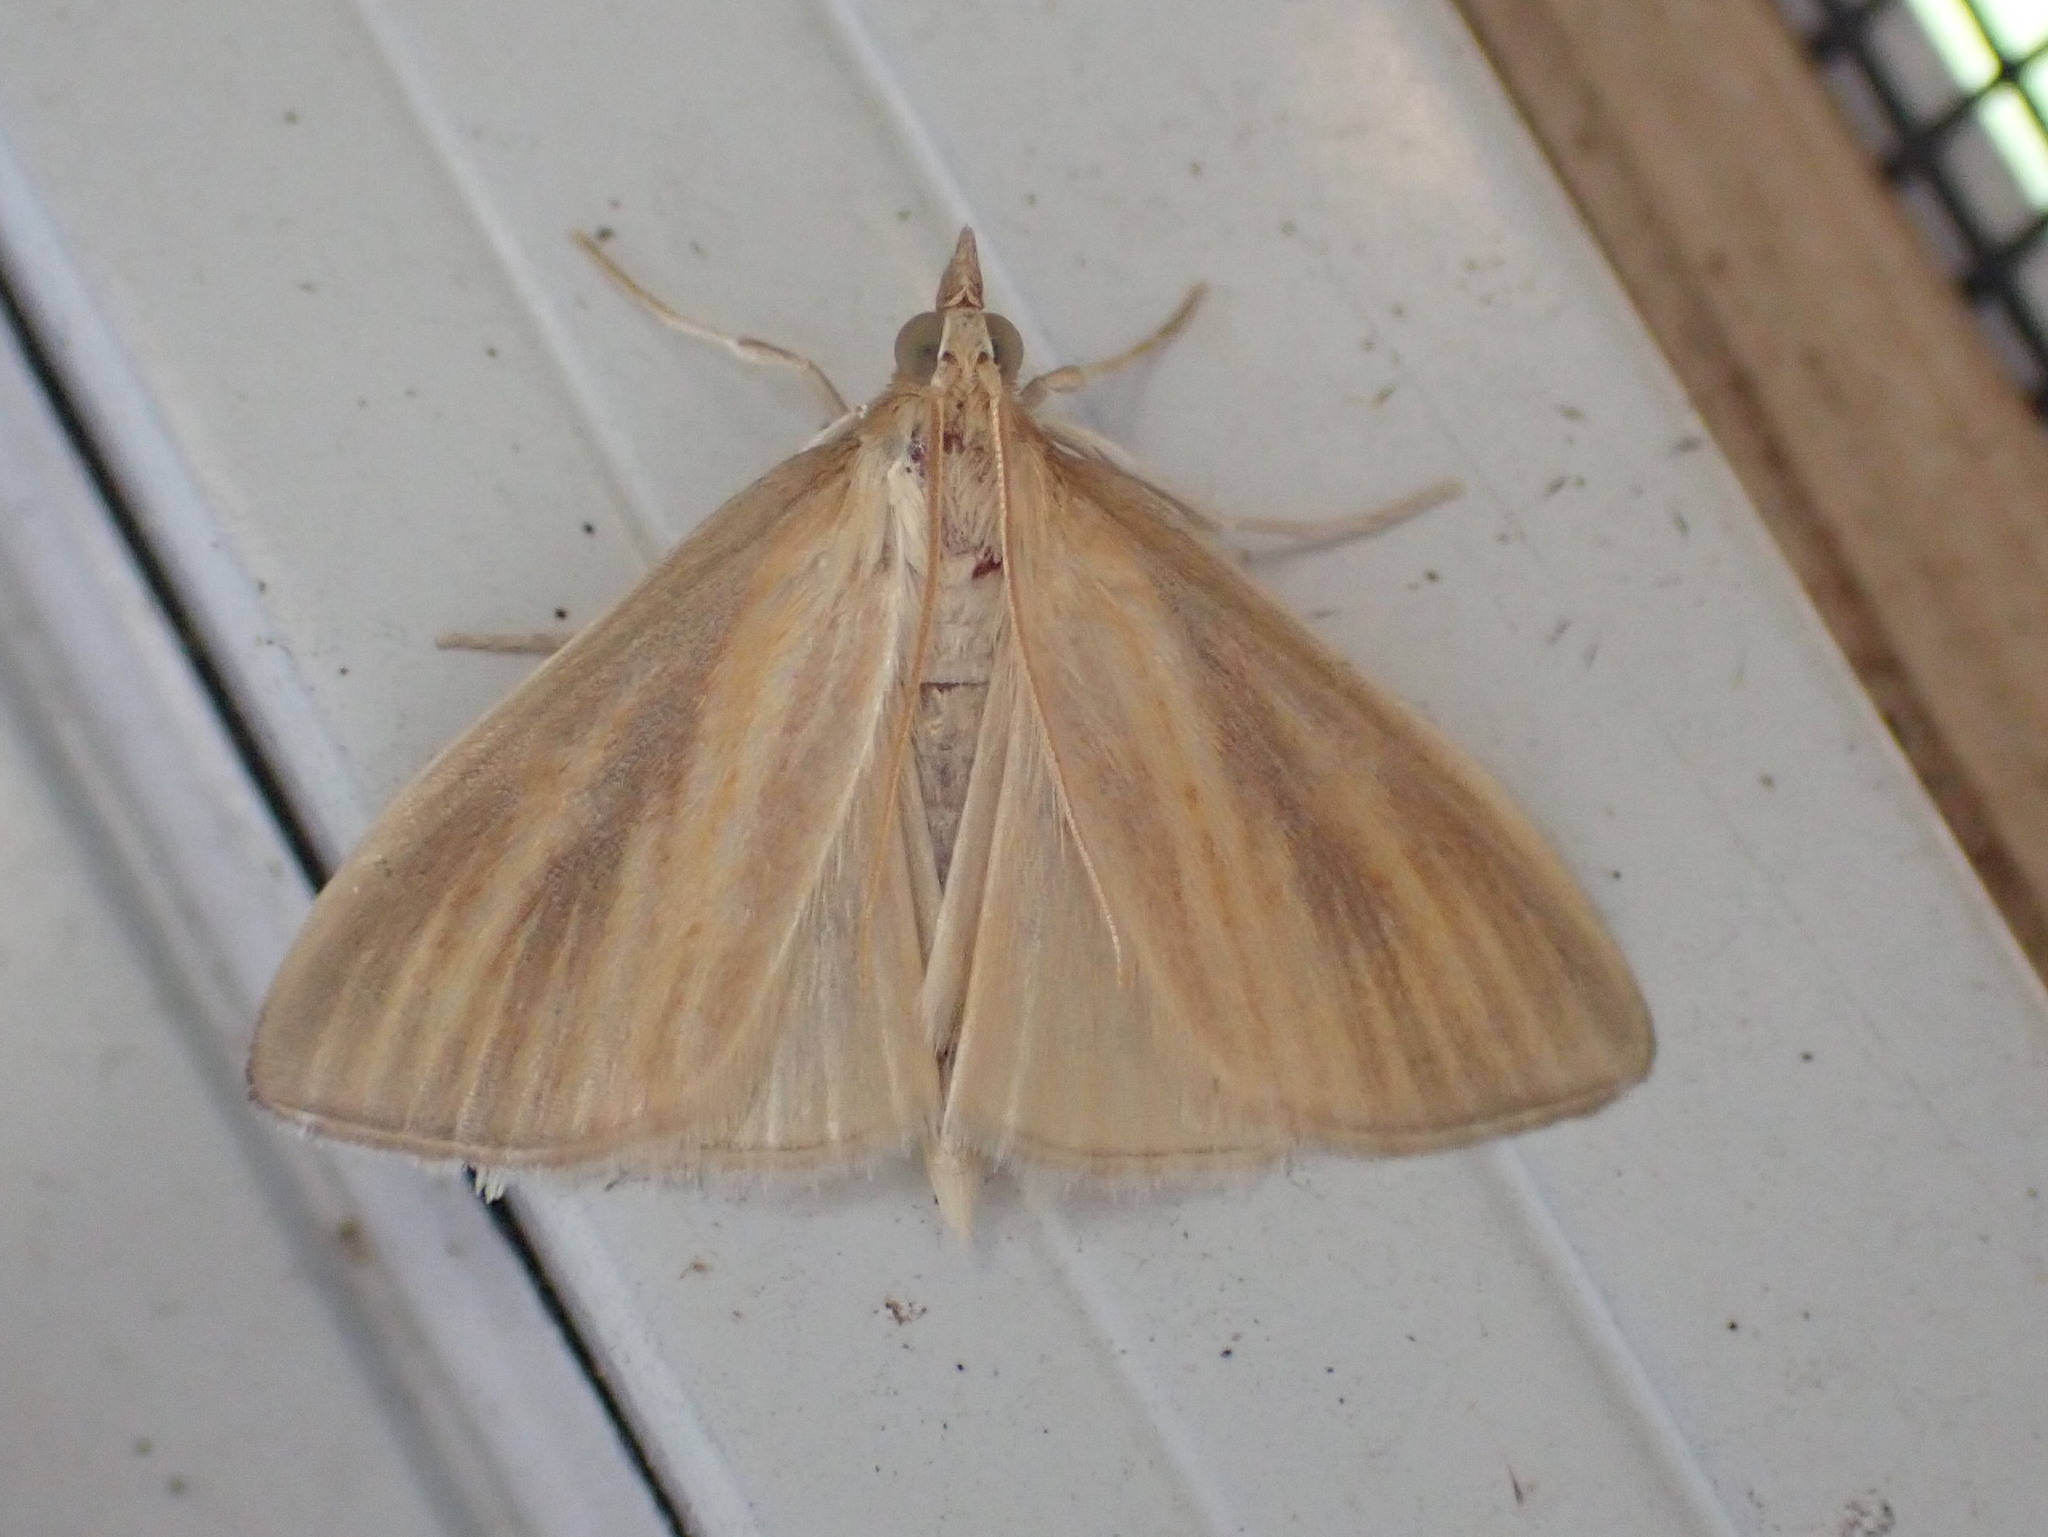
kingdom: Animalia
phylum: Arthropoda
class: Insecta
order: Lepidoptera
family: Crambidae
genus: Nascia
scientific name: Nascia acutellus
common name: Streaked orange moth
